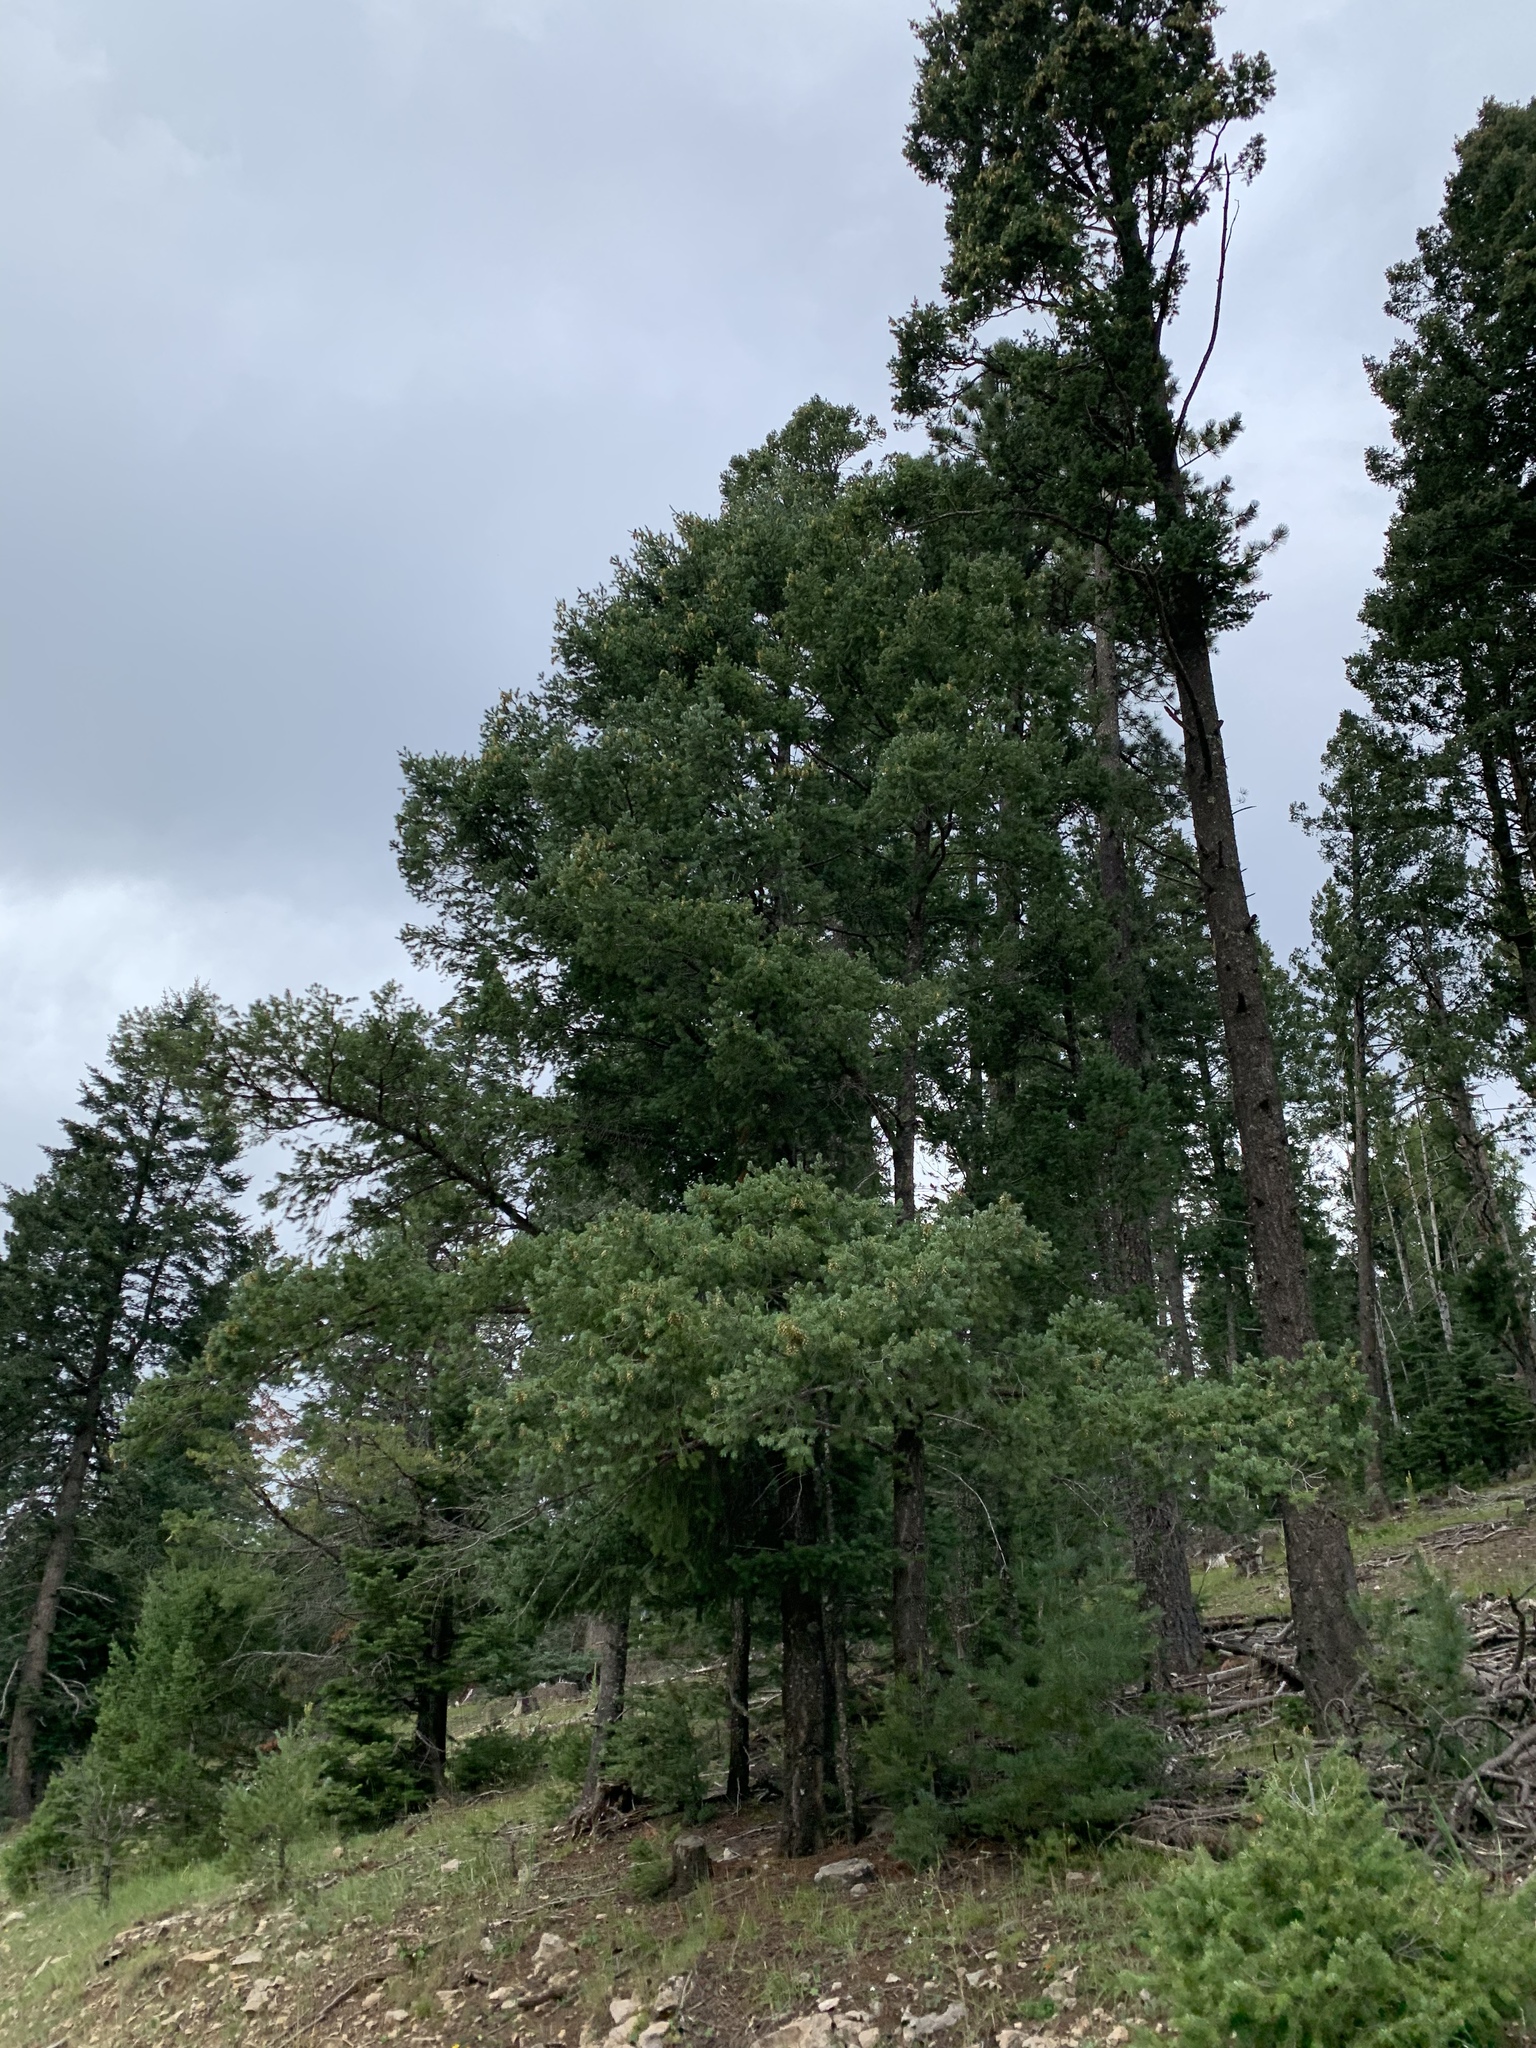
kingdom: Plantae
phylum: Tracheophyta
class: Pinopsida
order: Pinales
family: Pinaceae
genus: Pseudotsuga
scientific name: Pseudotsuga menziesii
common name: Douglas fir
